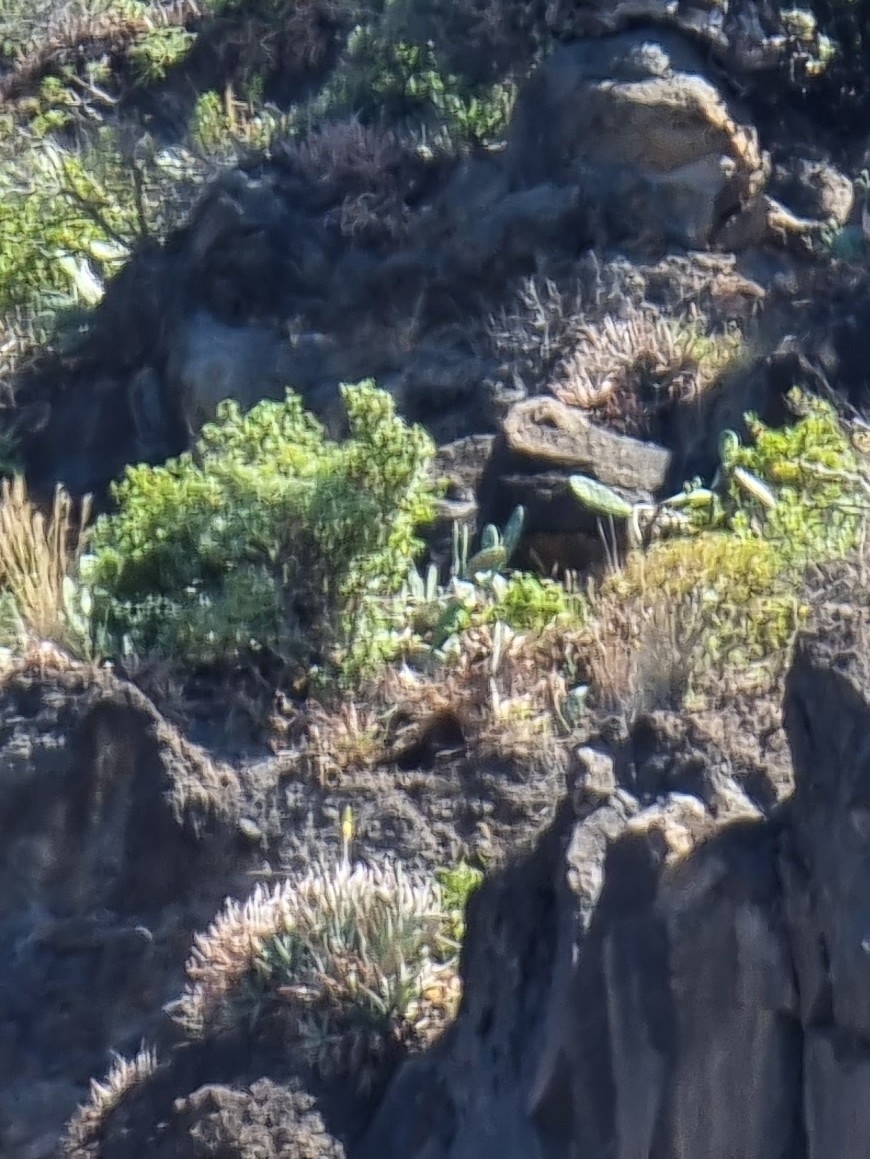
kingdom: Plantae
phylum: Tracheophyta
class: Liliopsida
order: Asparagales
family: Asphodelaceae
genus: Aloe
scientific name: Aloe vera
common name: Barbados aloe
